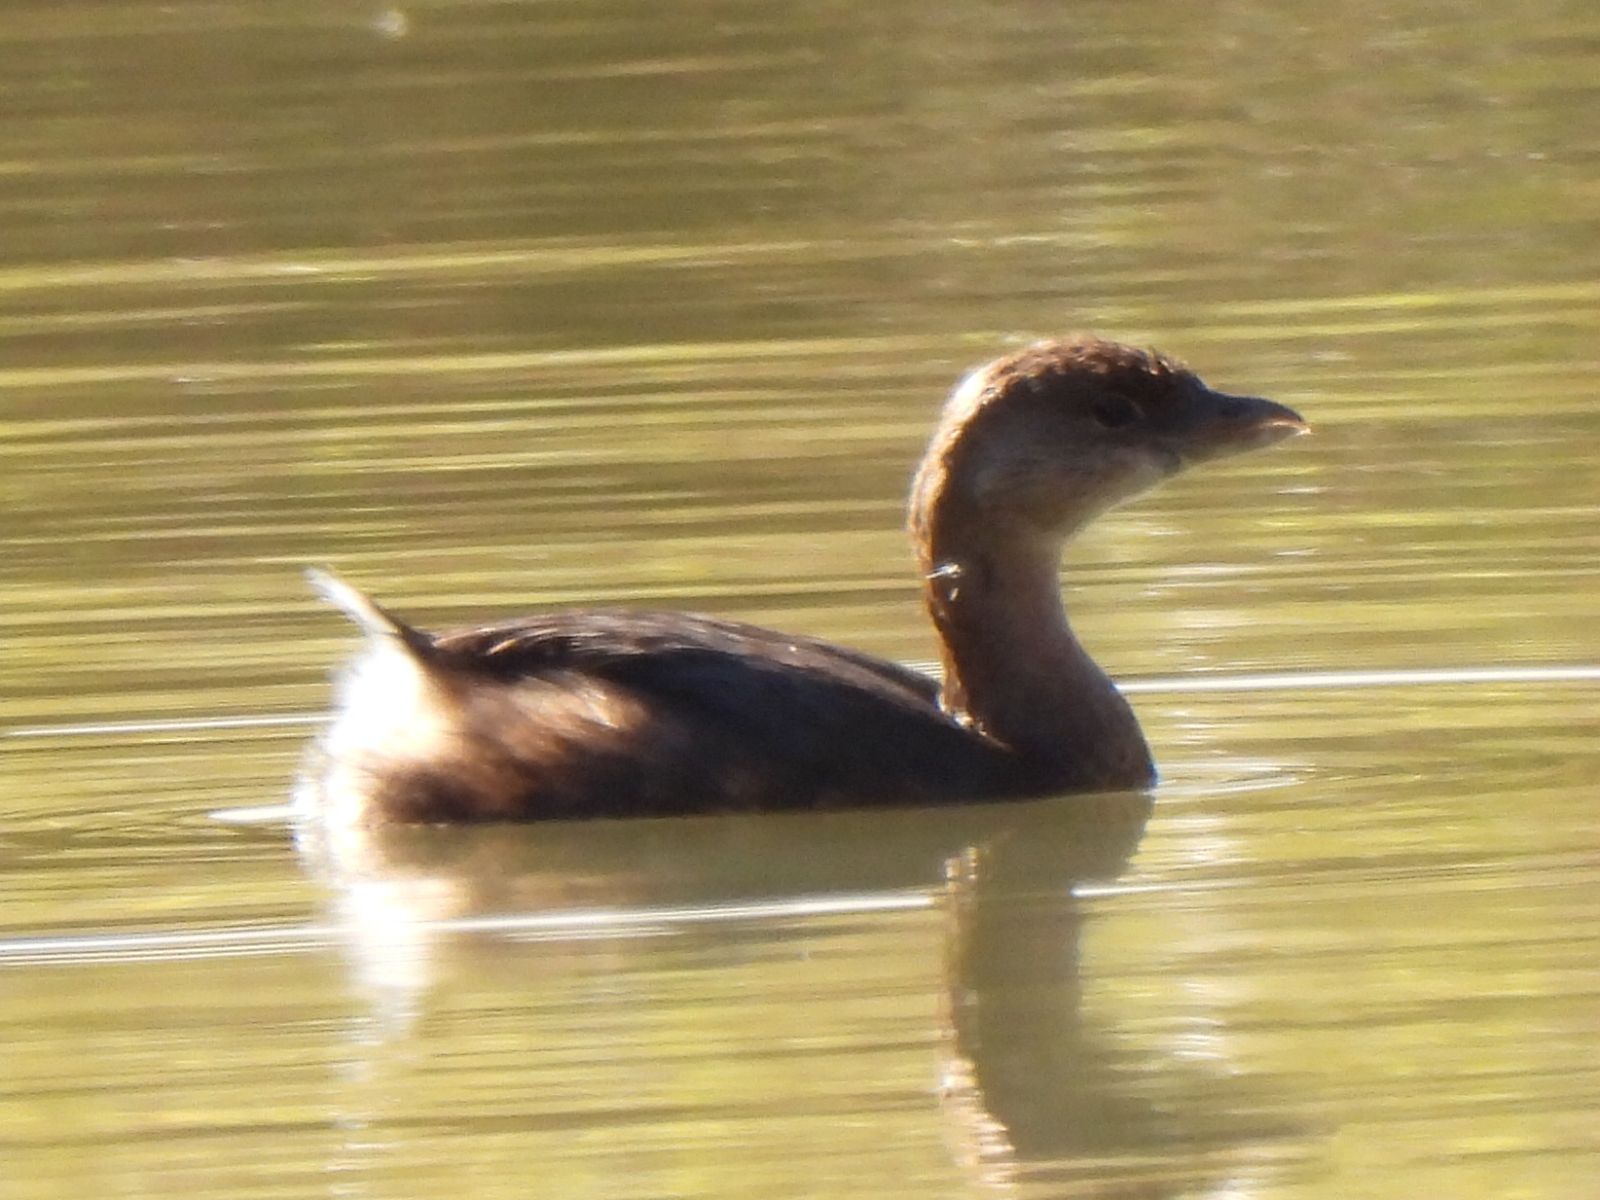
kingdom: Animalia
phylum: Chordata
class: Aves
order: Podicipediformes
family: Podicipedidae
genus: Podilymbus
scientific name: Podilymbus podiceps
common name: Pied-billed grebe
